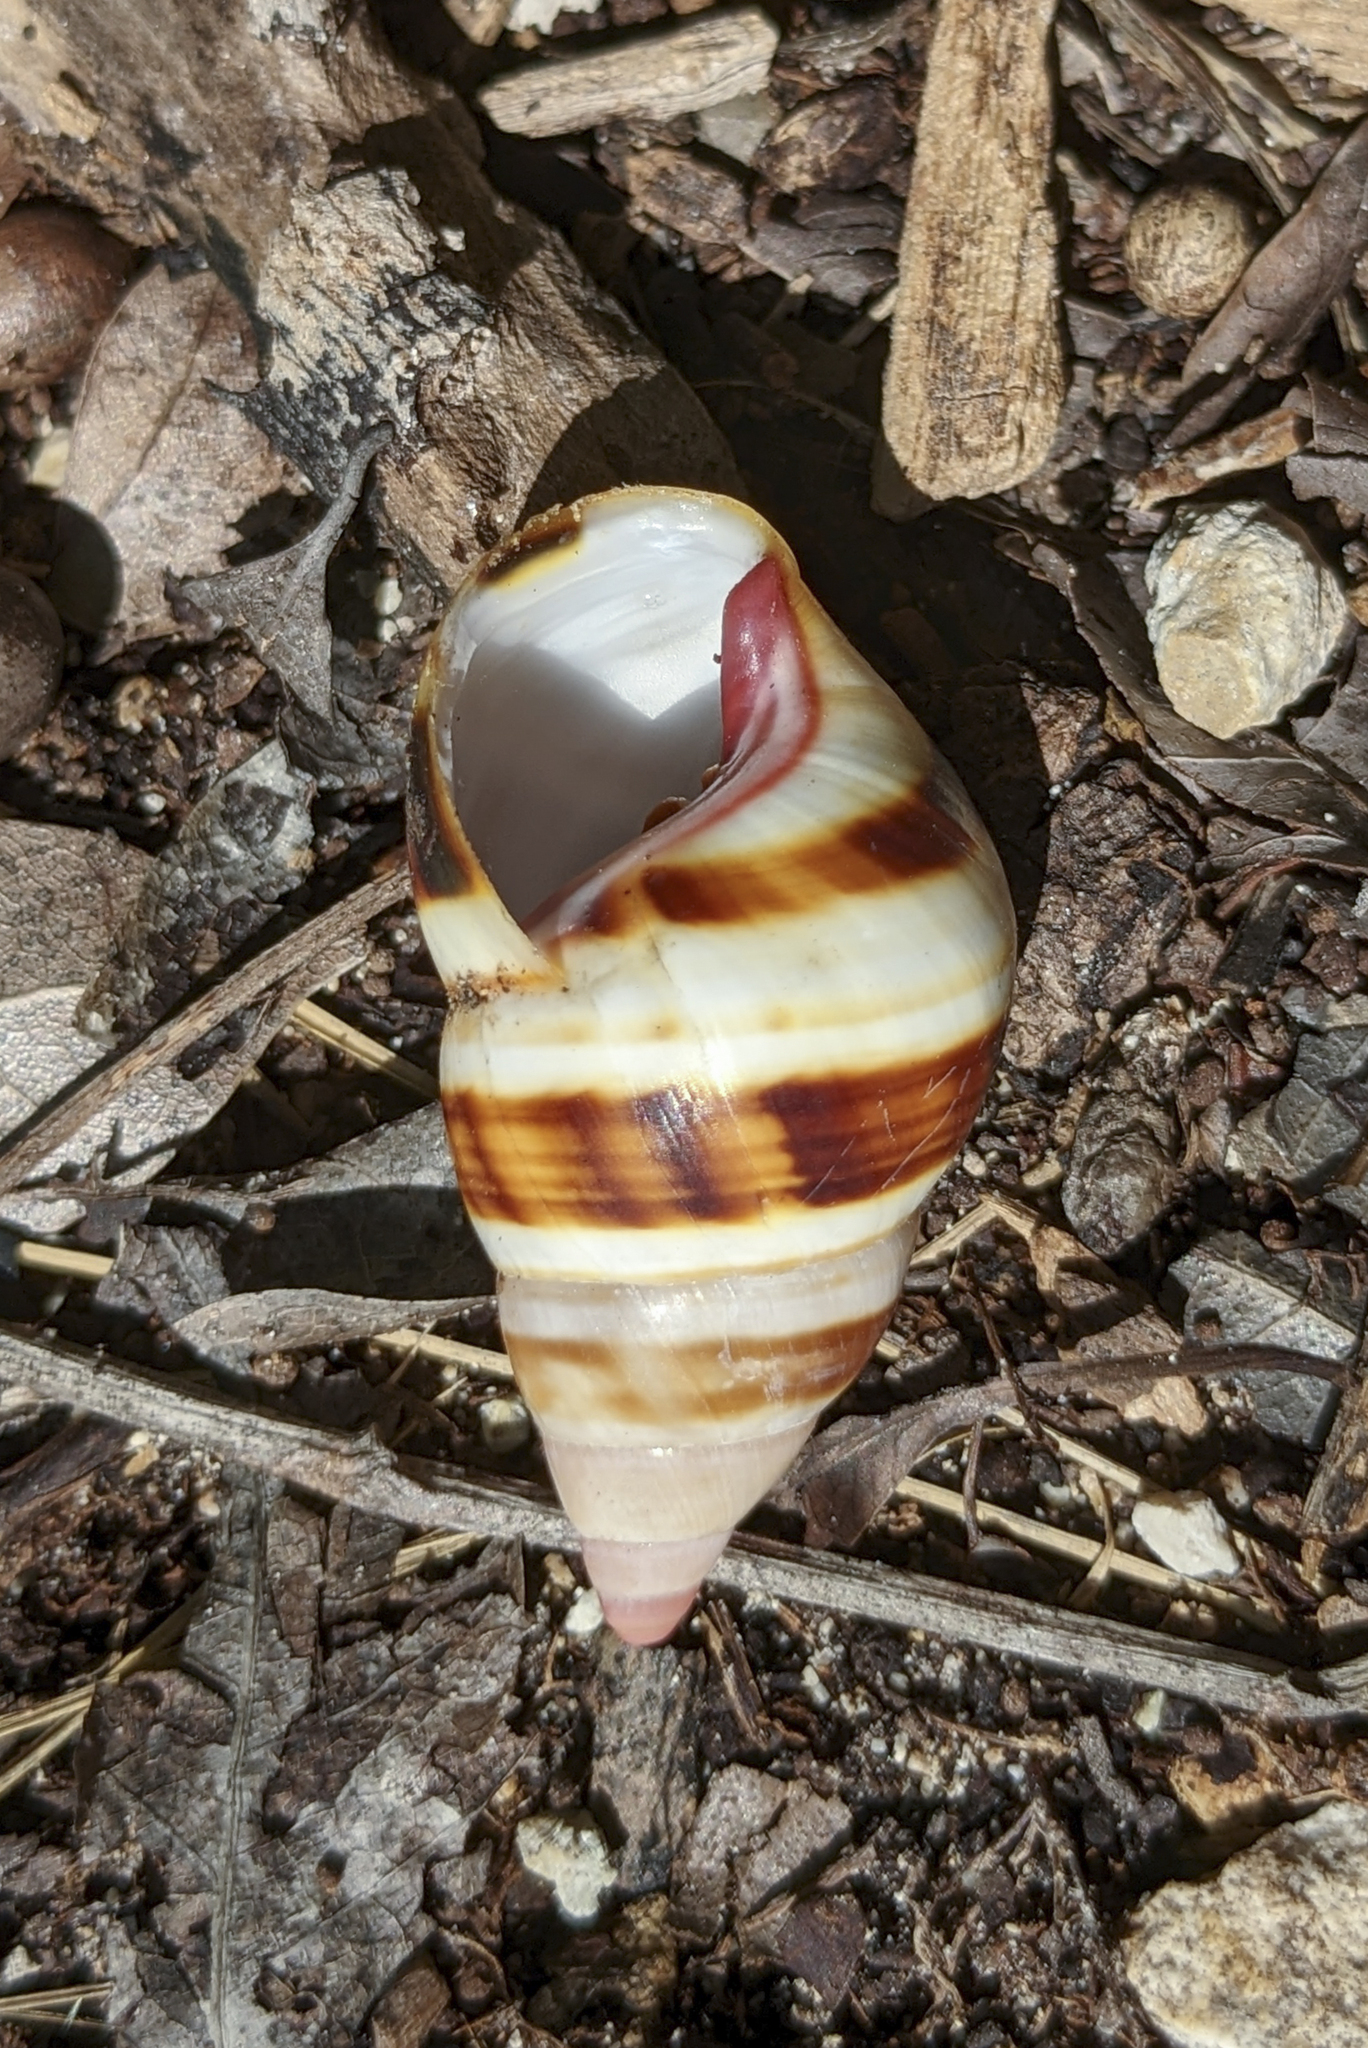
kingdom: Animalia
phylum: Mollusca
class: Gastropoda
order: Stylommatophora
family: Orthalicidae
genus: Liguus
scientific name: Liguus fasciatus
